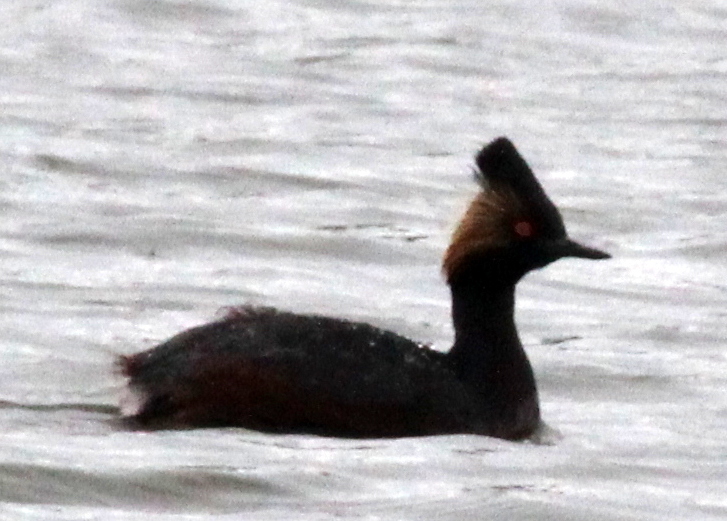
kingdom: Animalia
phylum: Chordata
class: Aves
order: Podicipediformes
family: Podicipedidae
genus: Podiceps
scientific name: Podiceps nigricollis
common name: Black-necked grebe
